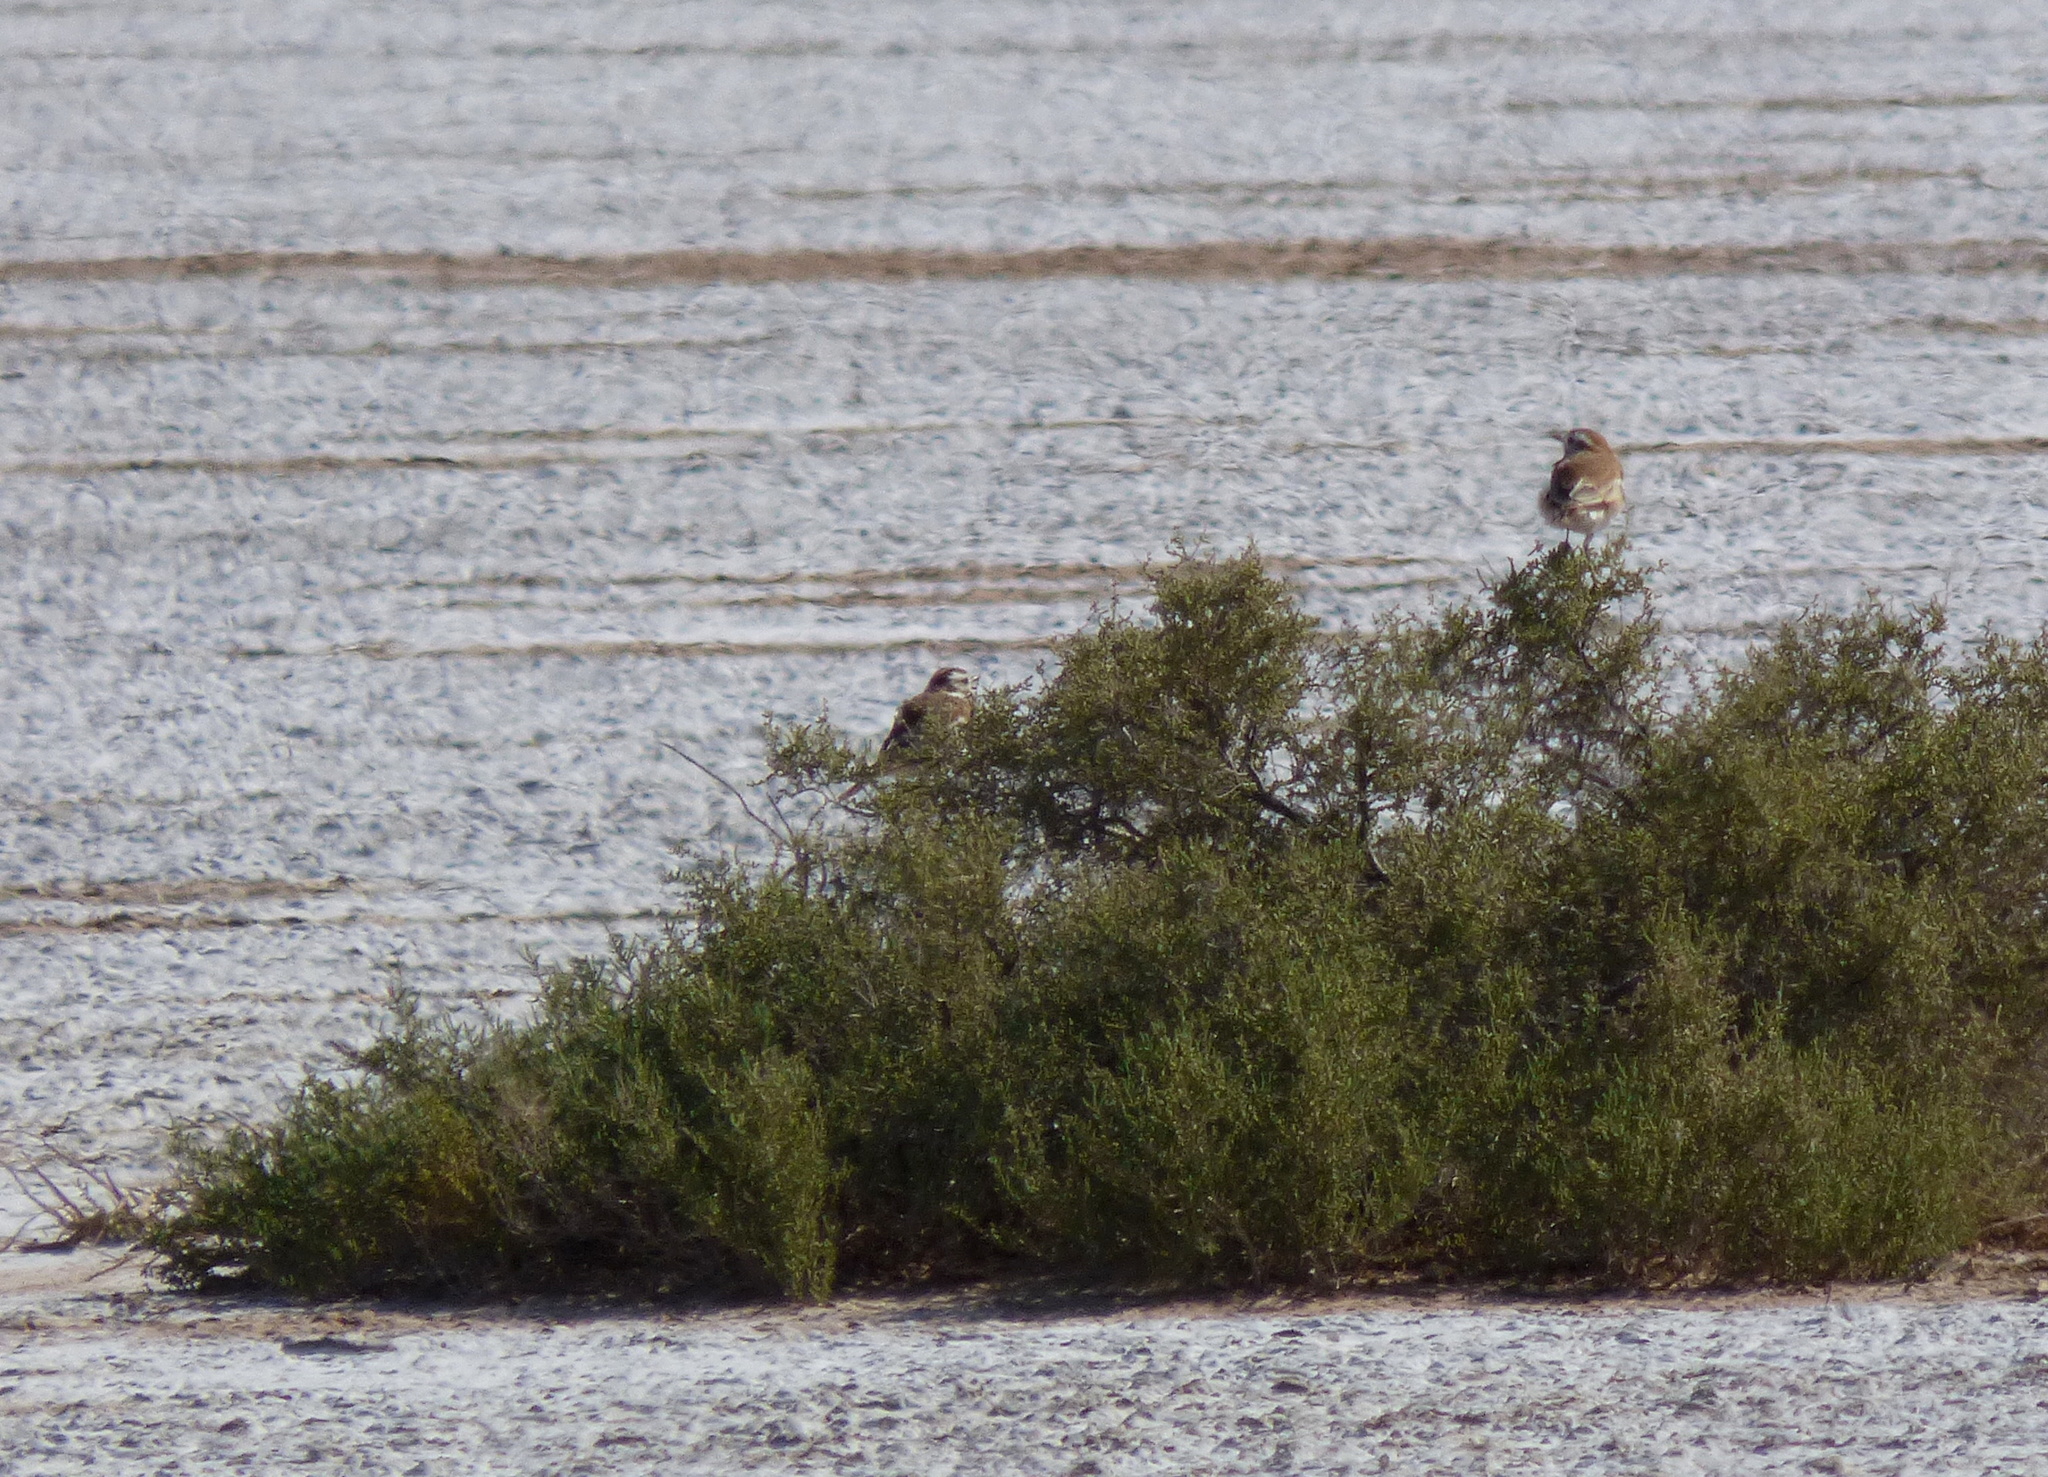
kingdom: Animalia
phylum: Chordata
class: Aves
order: Passeriformes
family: Tyrannidae
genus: Neoxolmis
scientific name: Neoxolmis salinarum
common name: Salinas monjita
